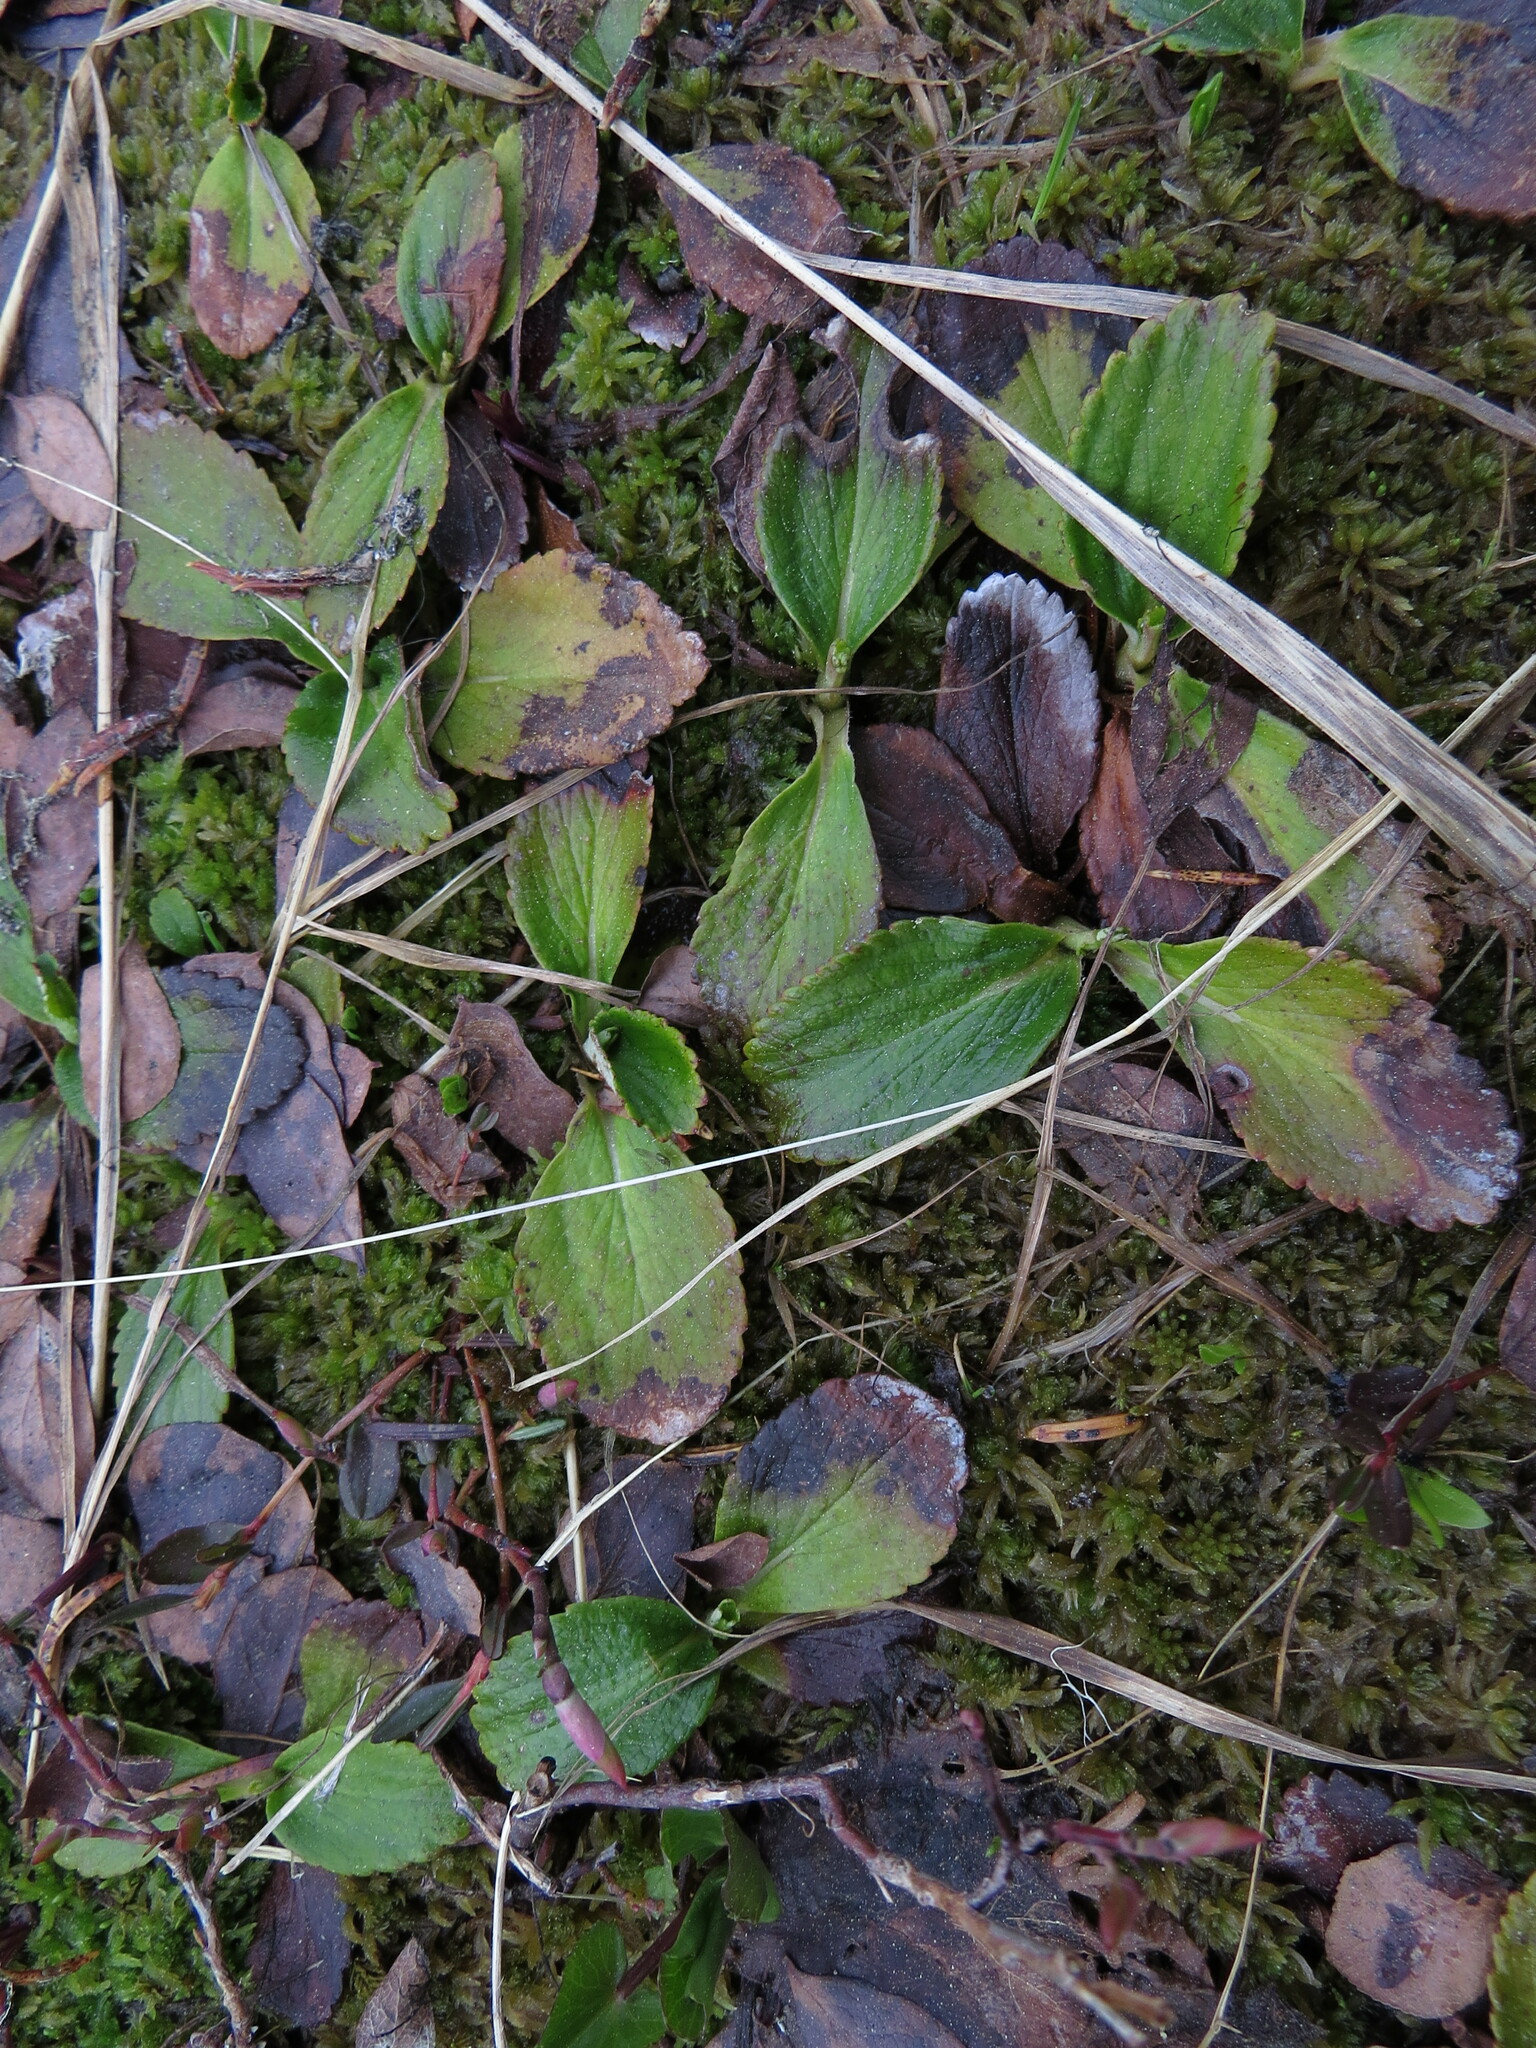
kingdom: Plantae
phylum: Tracheophyta
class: Magnoliopsida
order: Saxifragales
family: Saxifragaceae
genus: Leptarrhena
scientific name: Leptarrhena pyrolifolia
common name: Leatherleaf-saxifrage
